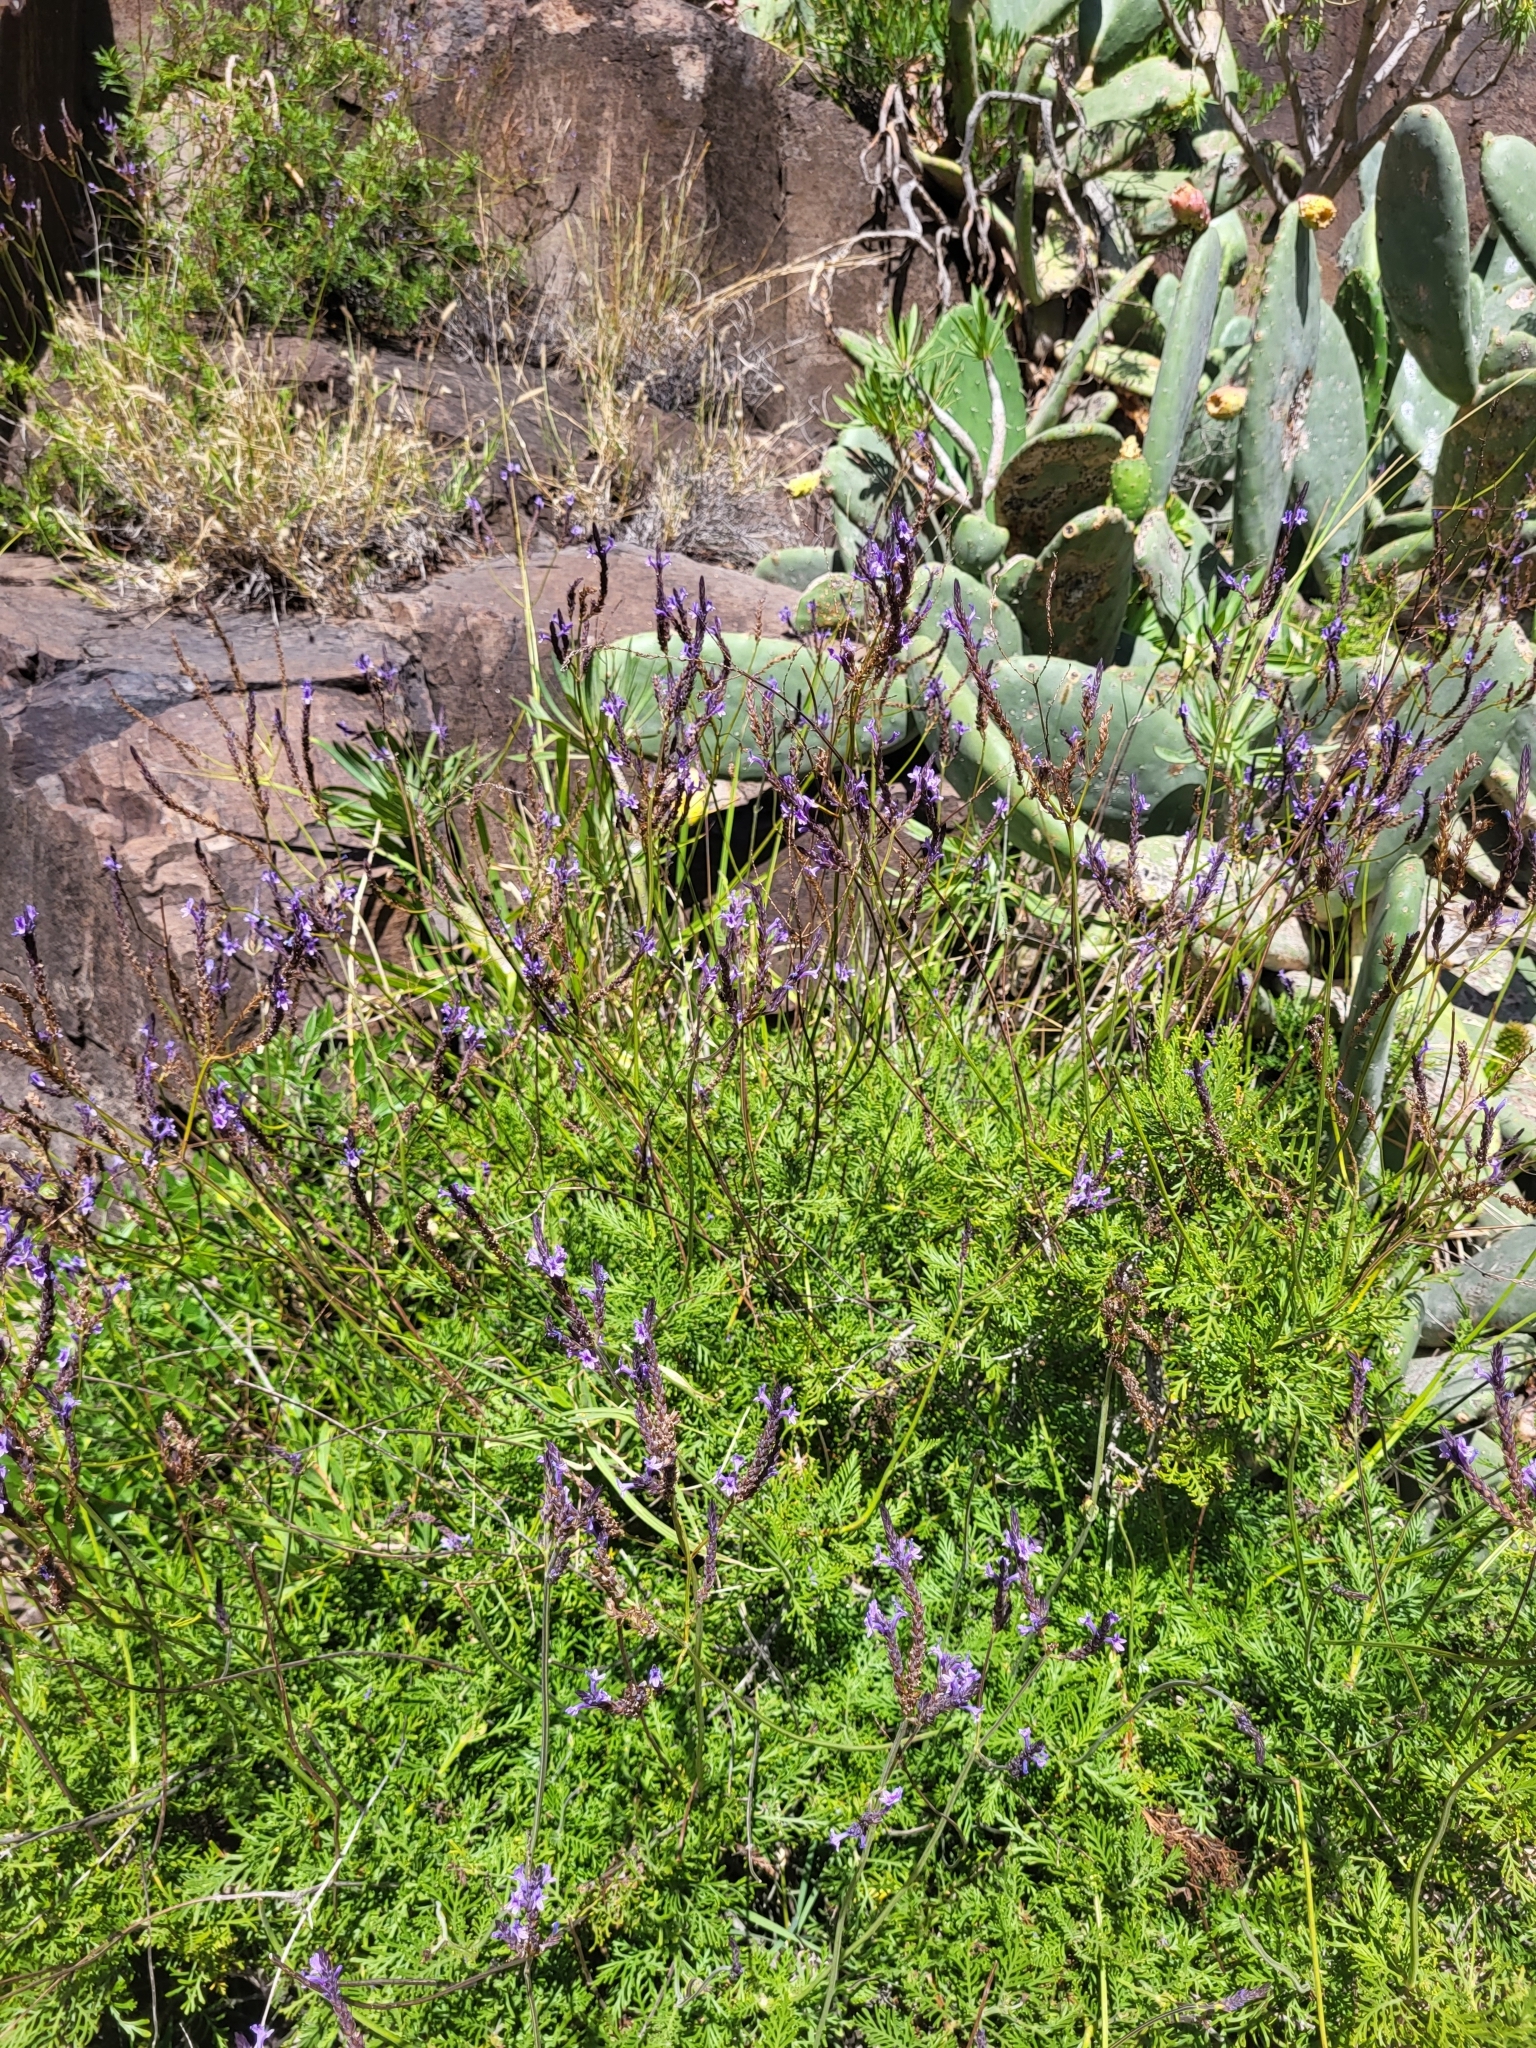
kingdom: Plantae
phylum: Tracheophyta
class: Magnoliopsida
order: Lamiales
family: Lamiaceae
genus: Lavandula
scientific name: Lavandula canariensis
